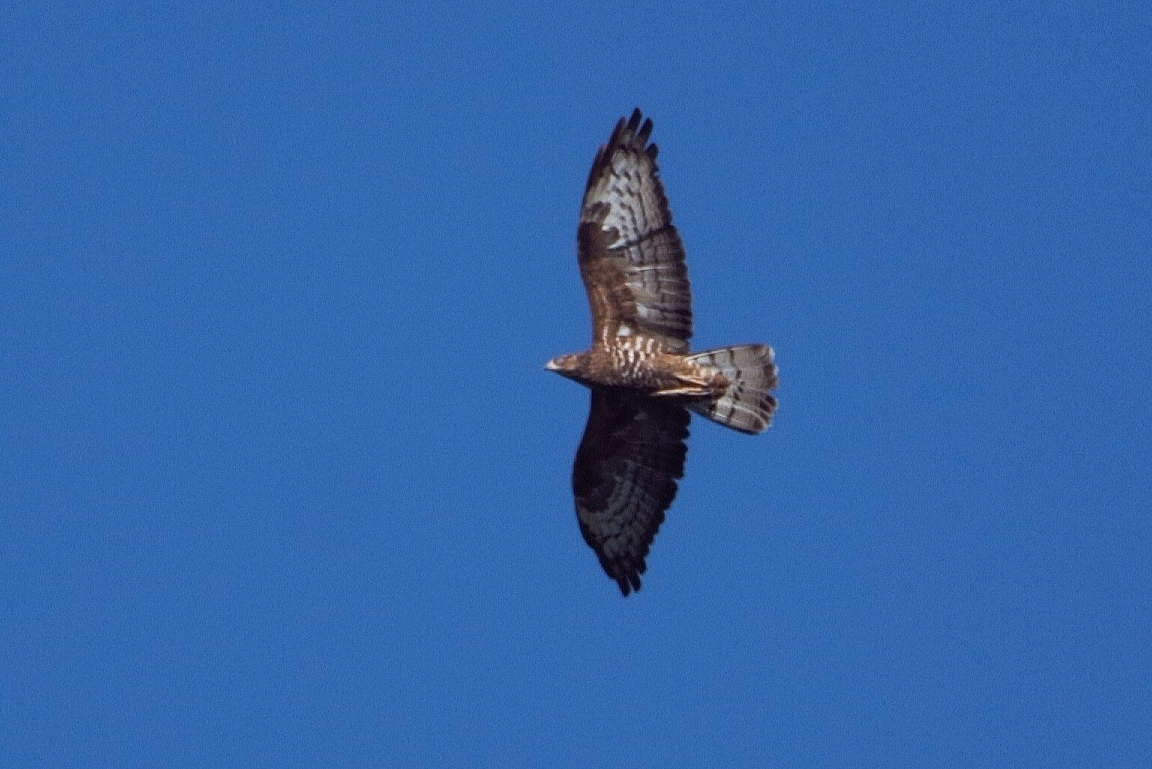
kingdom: Animalia
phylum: Chordata
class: Aves
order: Accipitriformes
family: Accipitridae
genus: Pernis
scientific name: Pernis apivorus
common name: European honey buzzard
